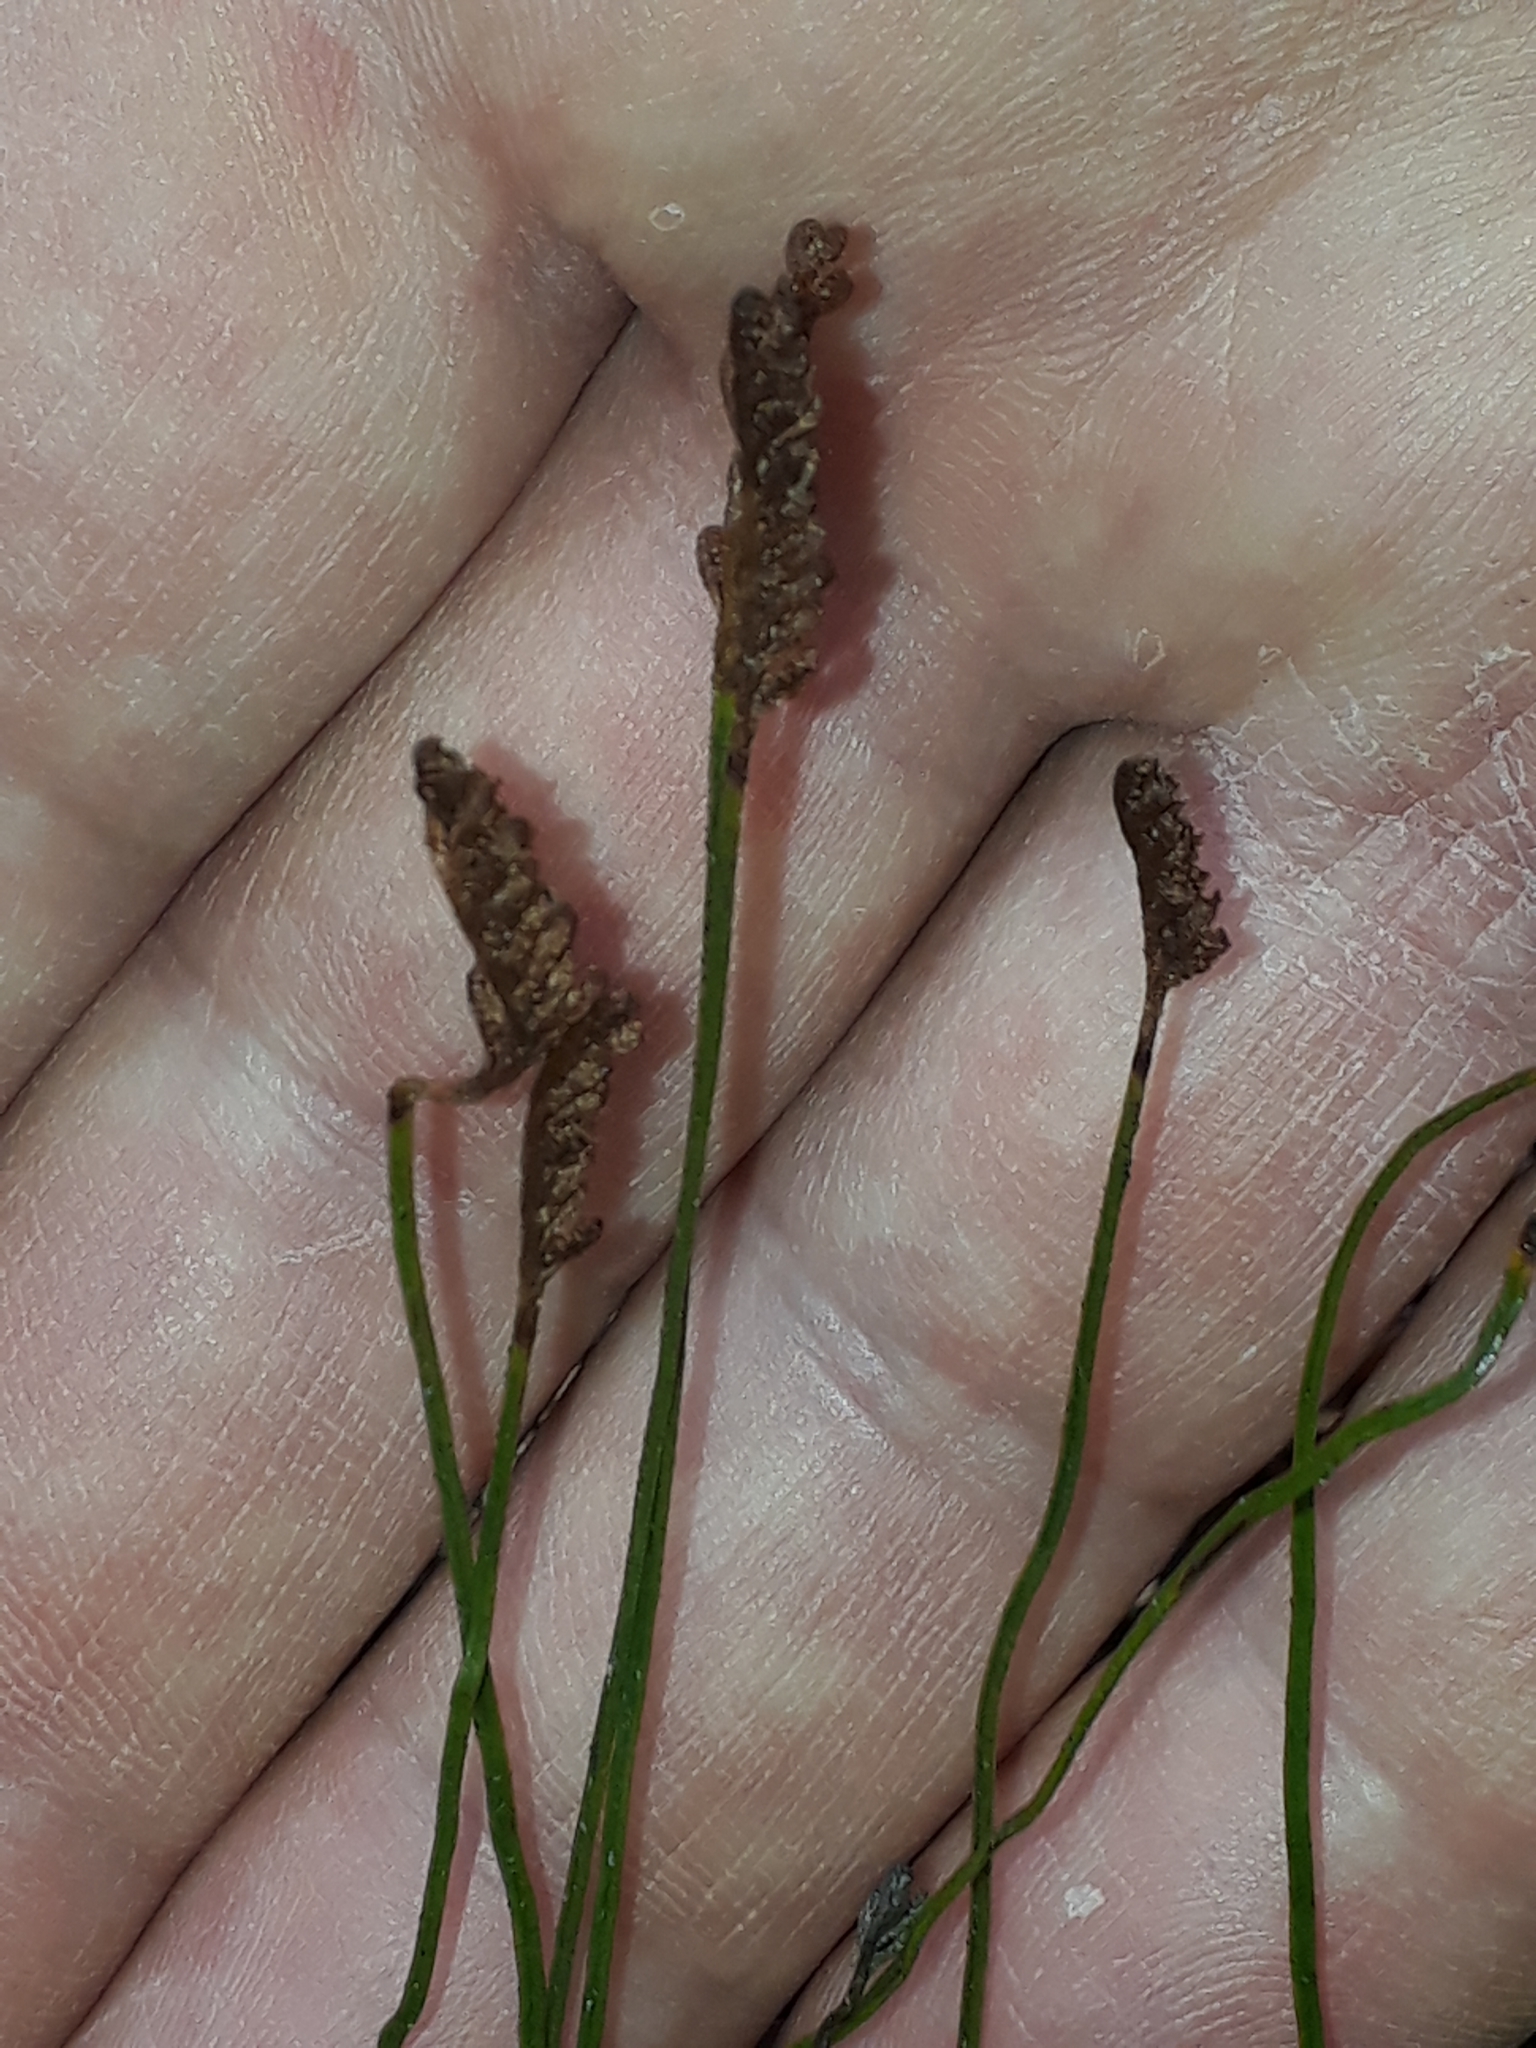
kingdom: Plantae
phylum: Tracheophyta
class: Polypodiopsida
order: Schizaeales
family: Schizaeaceae
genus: Microschizaea
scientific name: Microschizaea fistulosa
